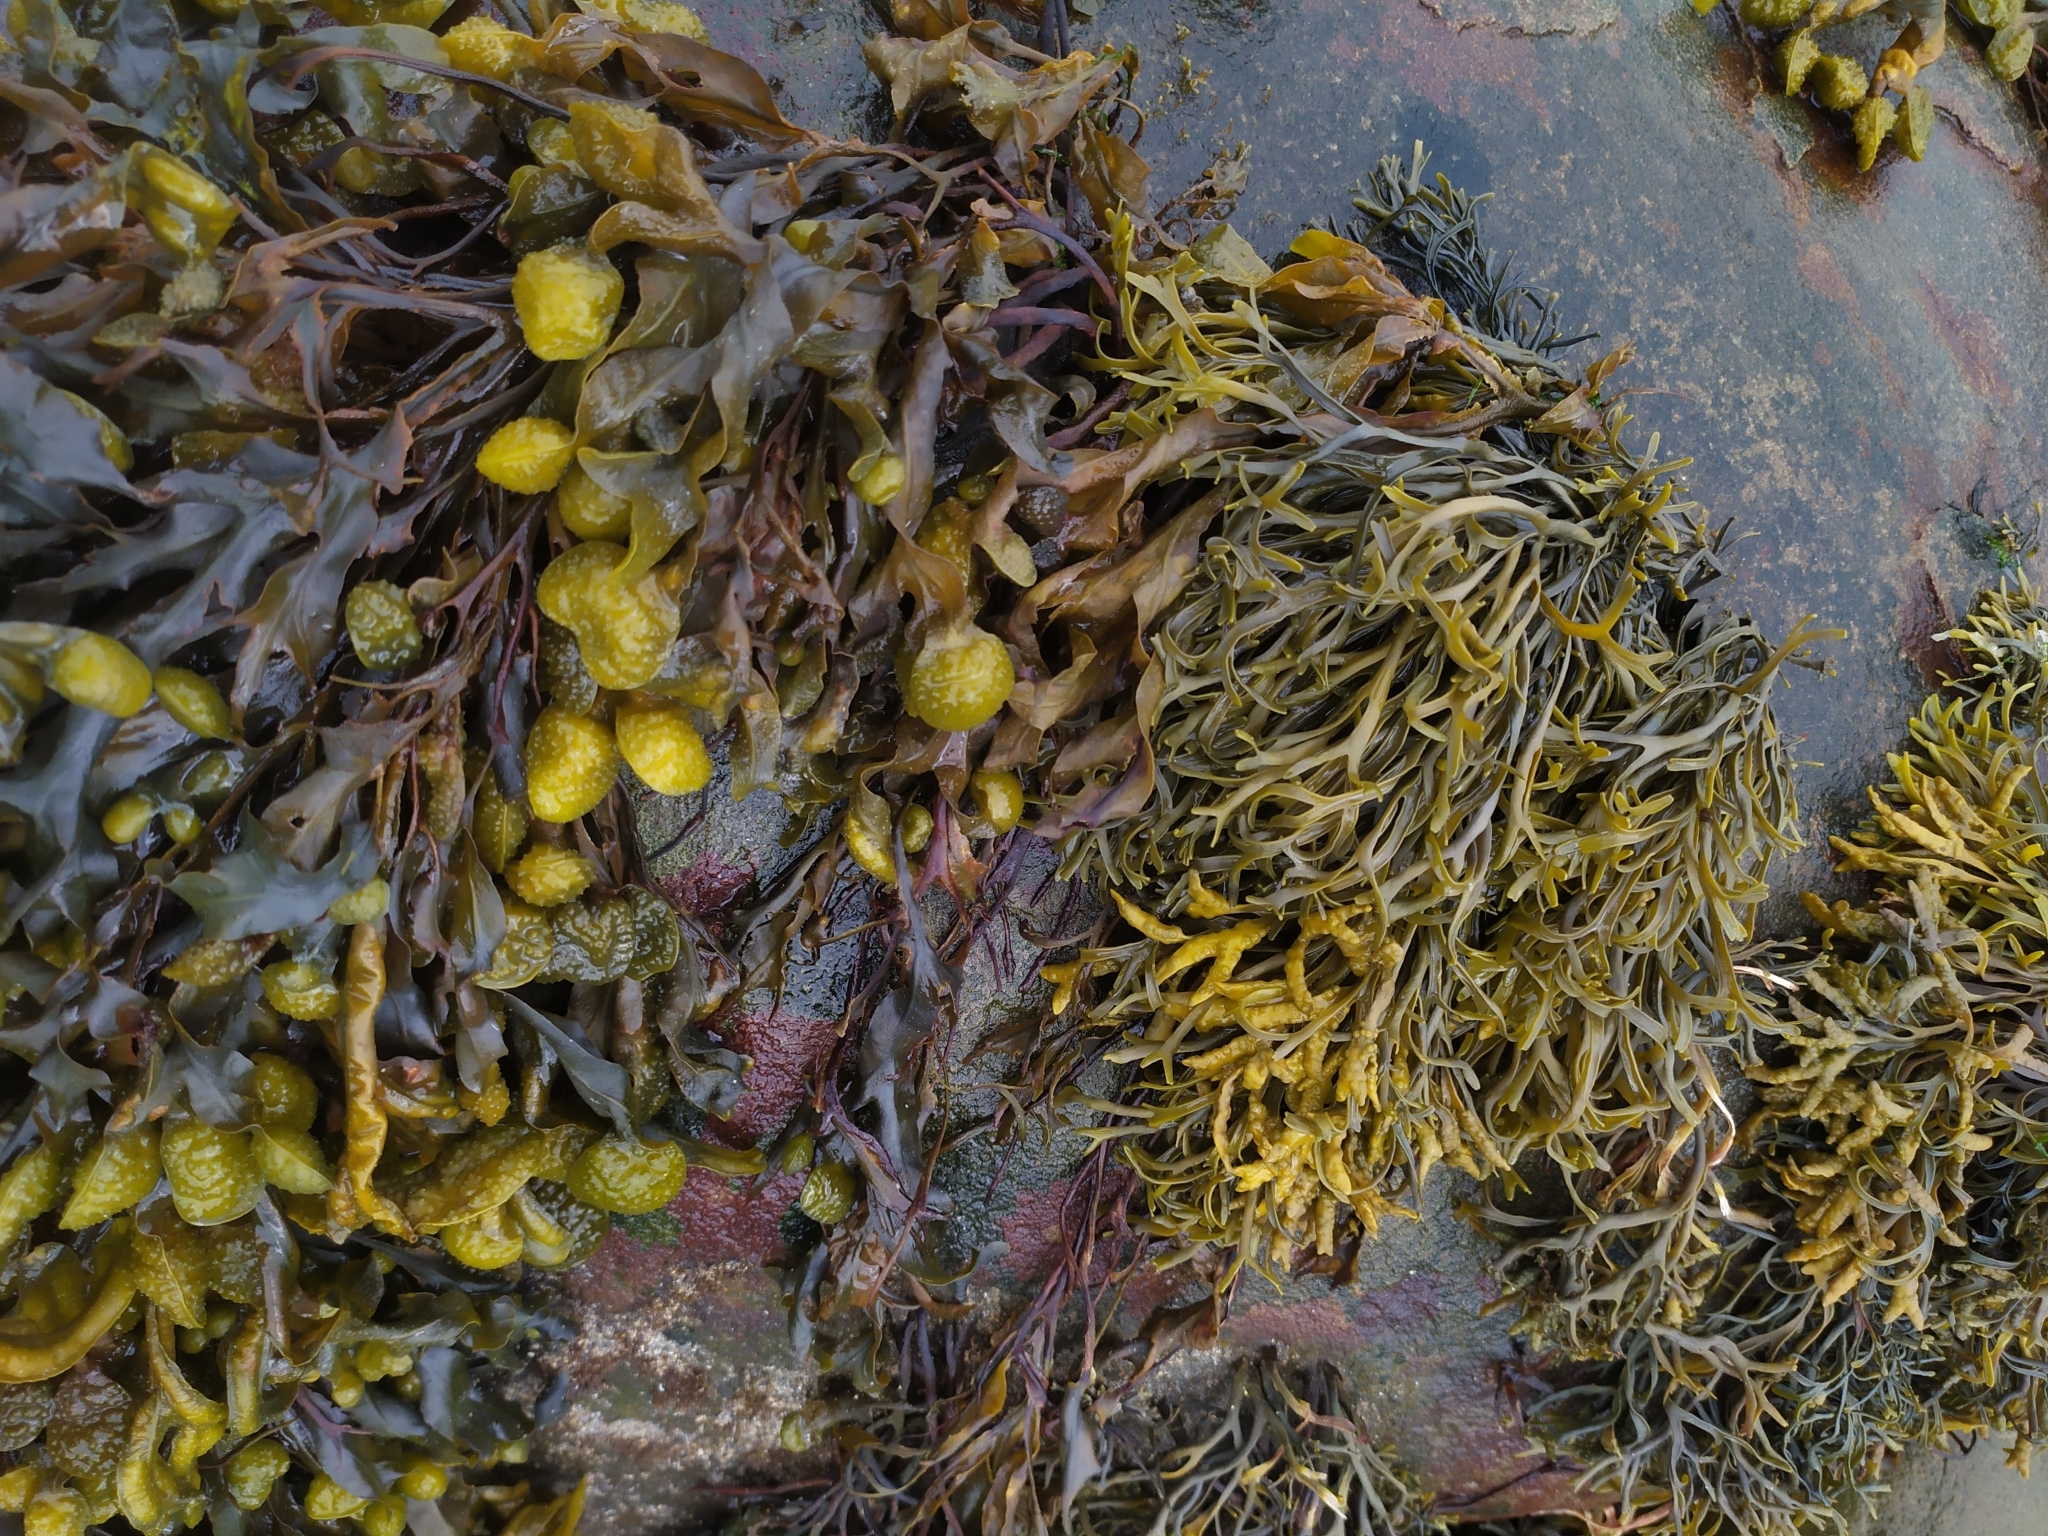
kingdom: Chromista
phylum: Ochrophyta
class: Phaeophyceae
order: Fucales
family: Fucaceae
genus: Pelvetia
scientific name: Pelvetia canaliculata
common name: Channelled wrack
